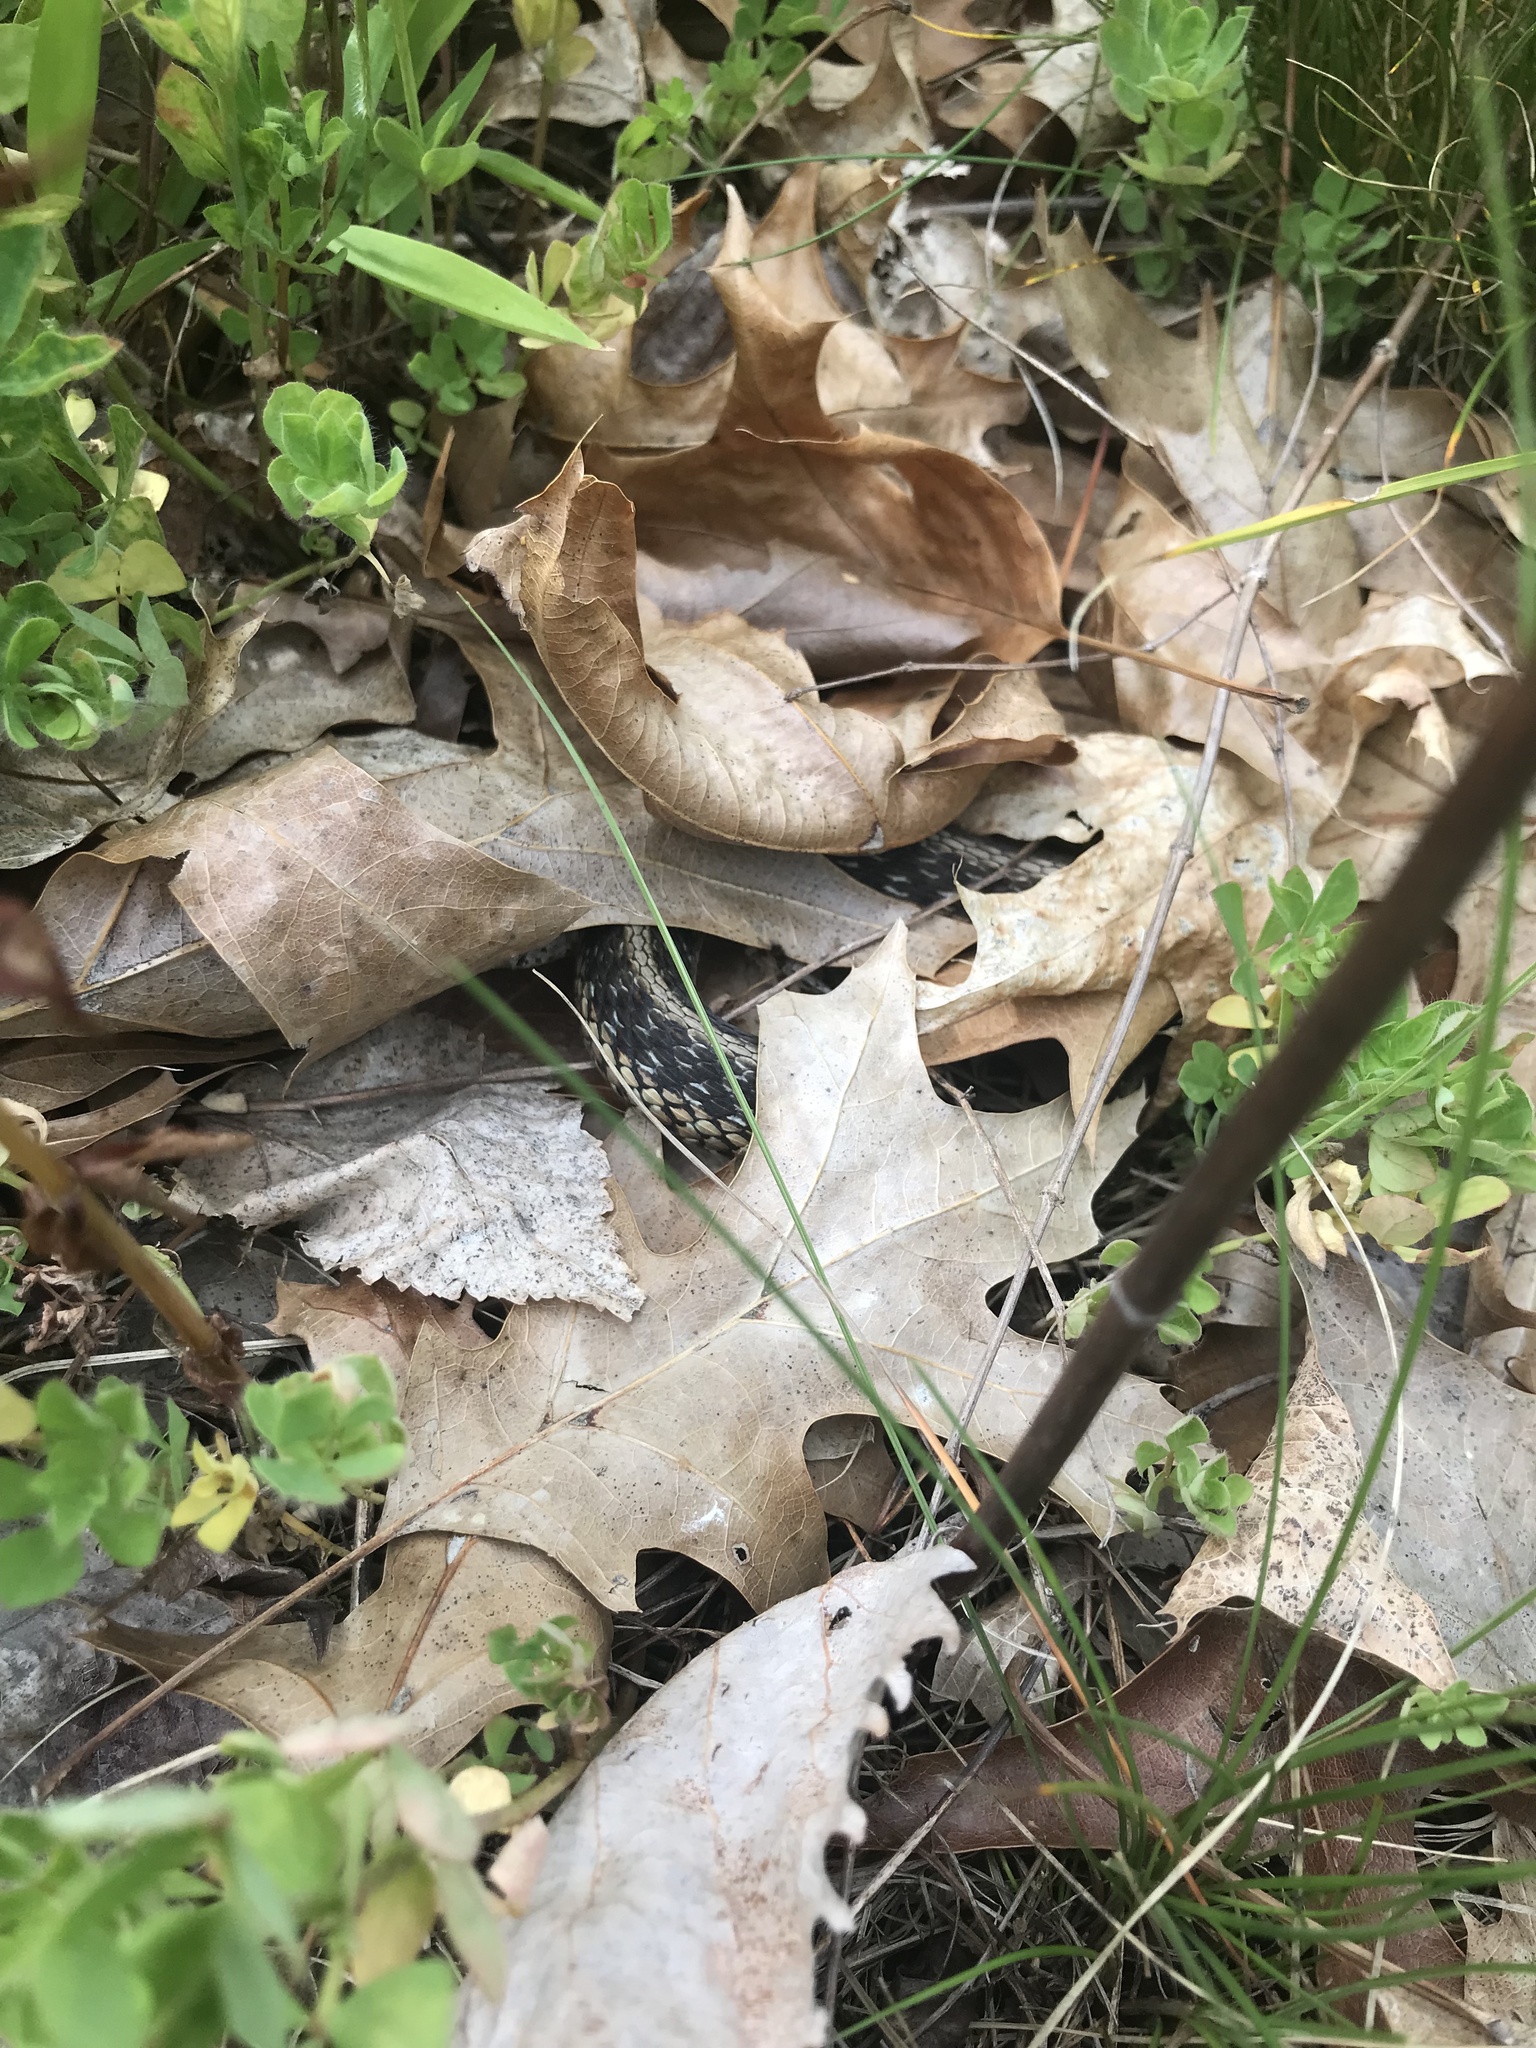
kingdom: Animalia
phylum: Chordata
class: Squamata
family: Colubridae
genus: Thamnophis
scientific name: Thamnophis sirtalis
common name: Common garter snake
